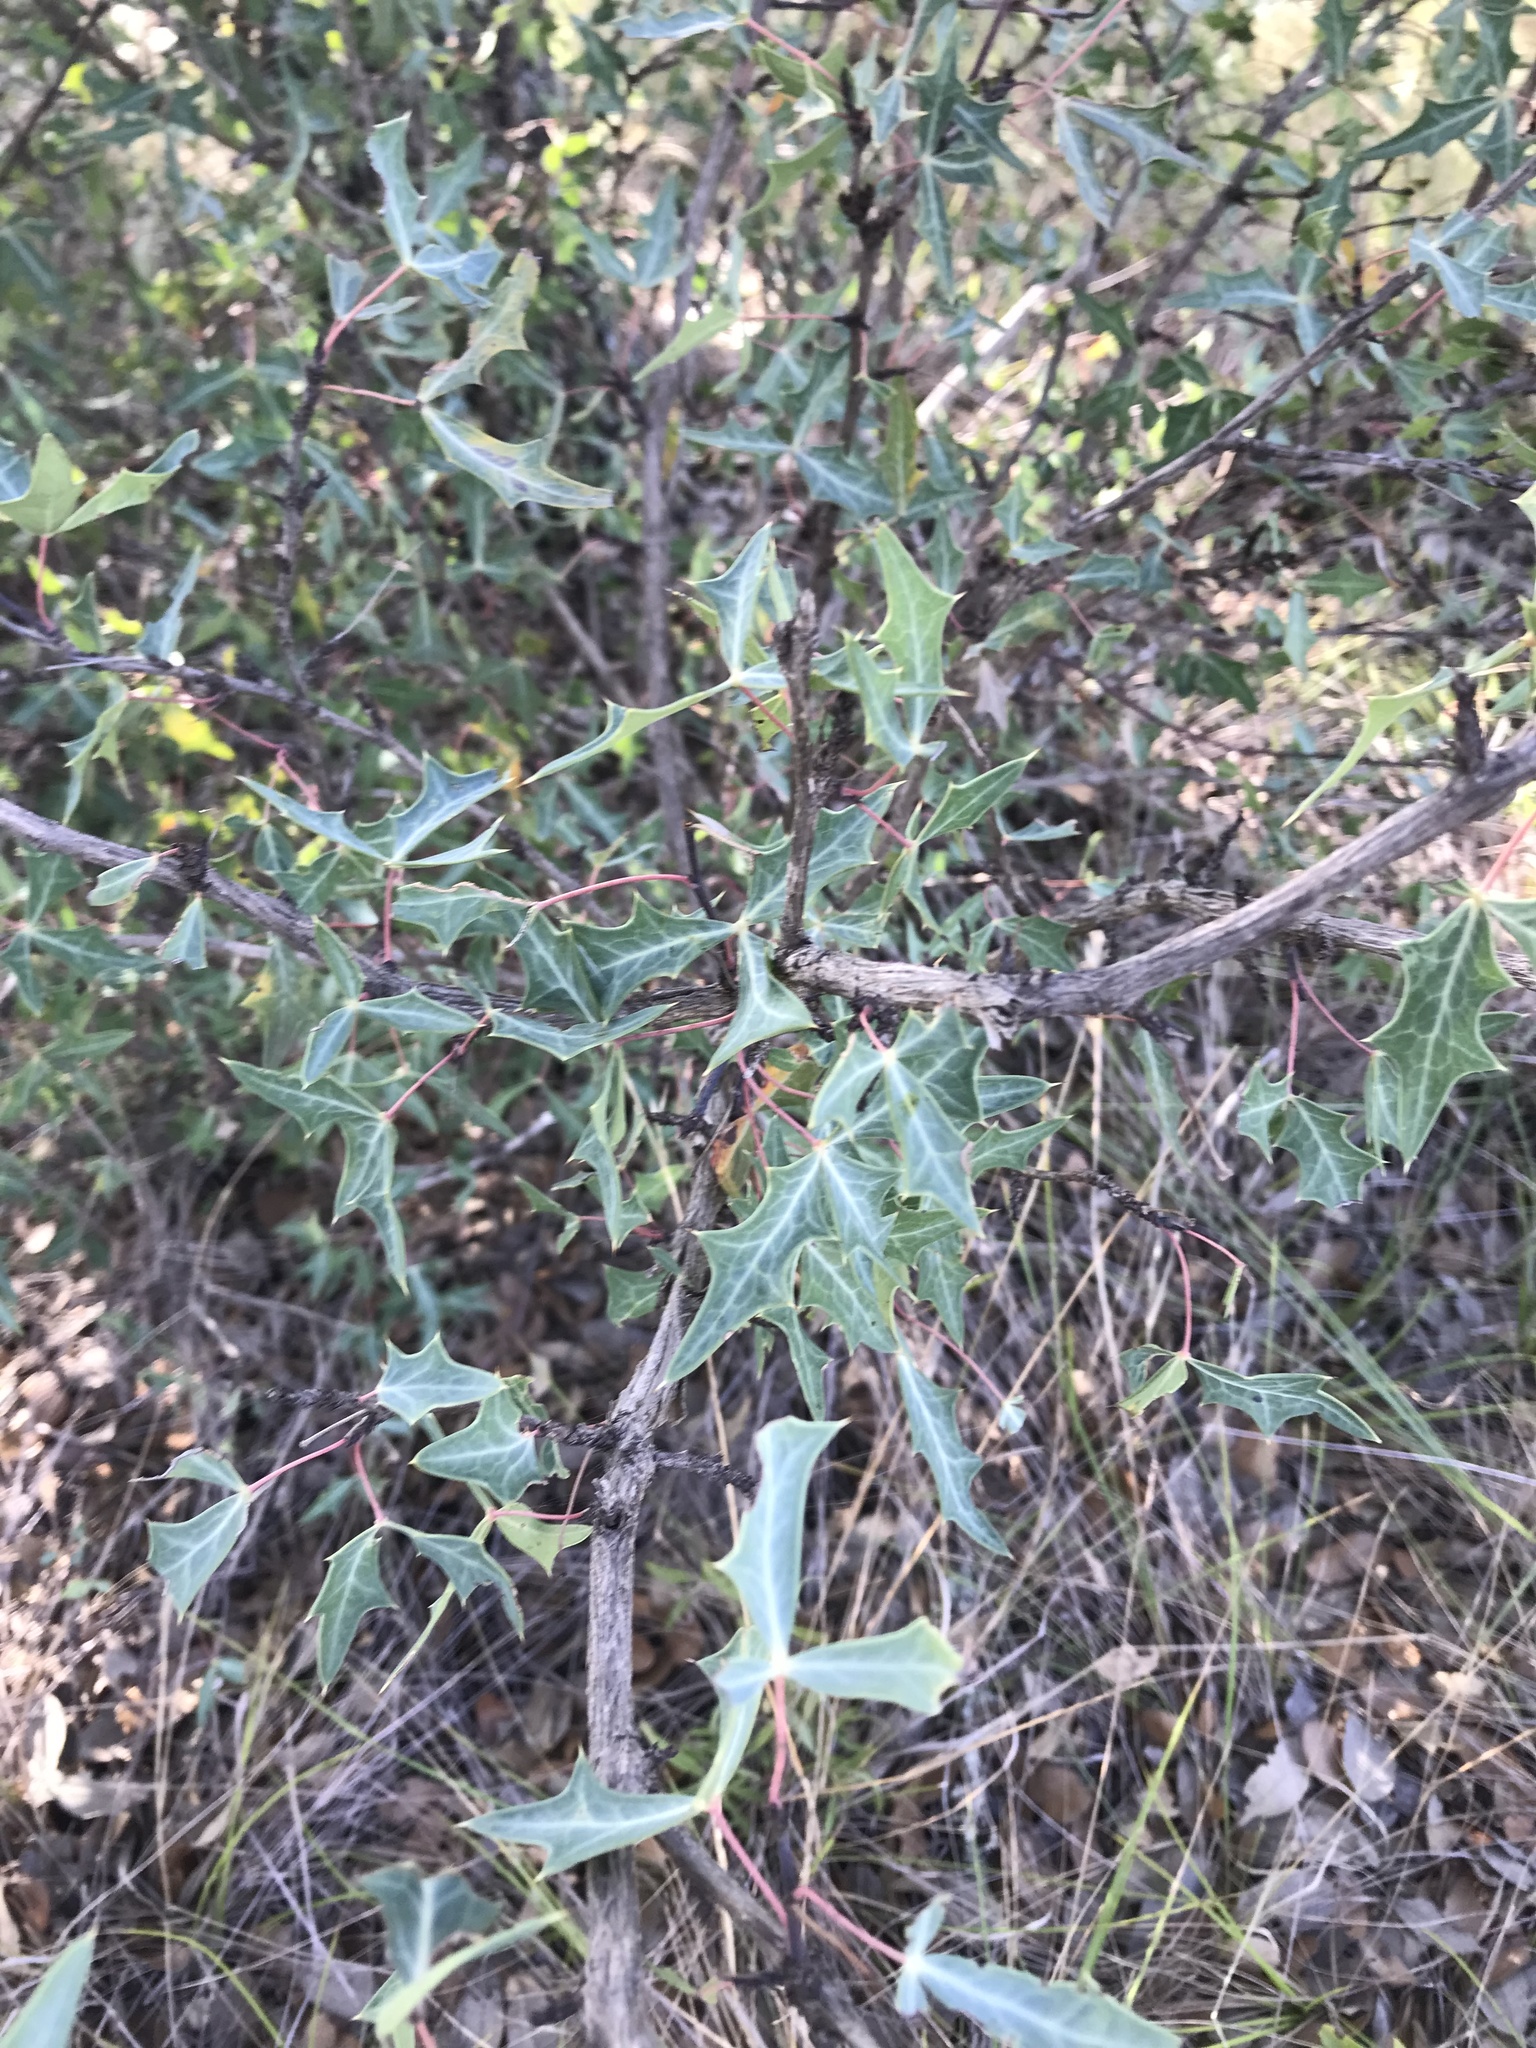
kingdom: Plantae
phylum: Tracheophyta
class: Magnoliopsida
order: Ranunculales
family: Berberidaceae
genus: Alloberberis
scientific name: Alloberberis trifoliolata
